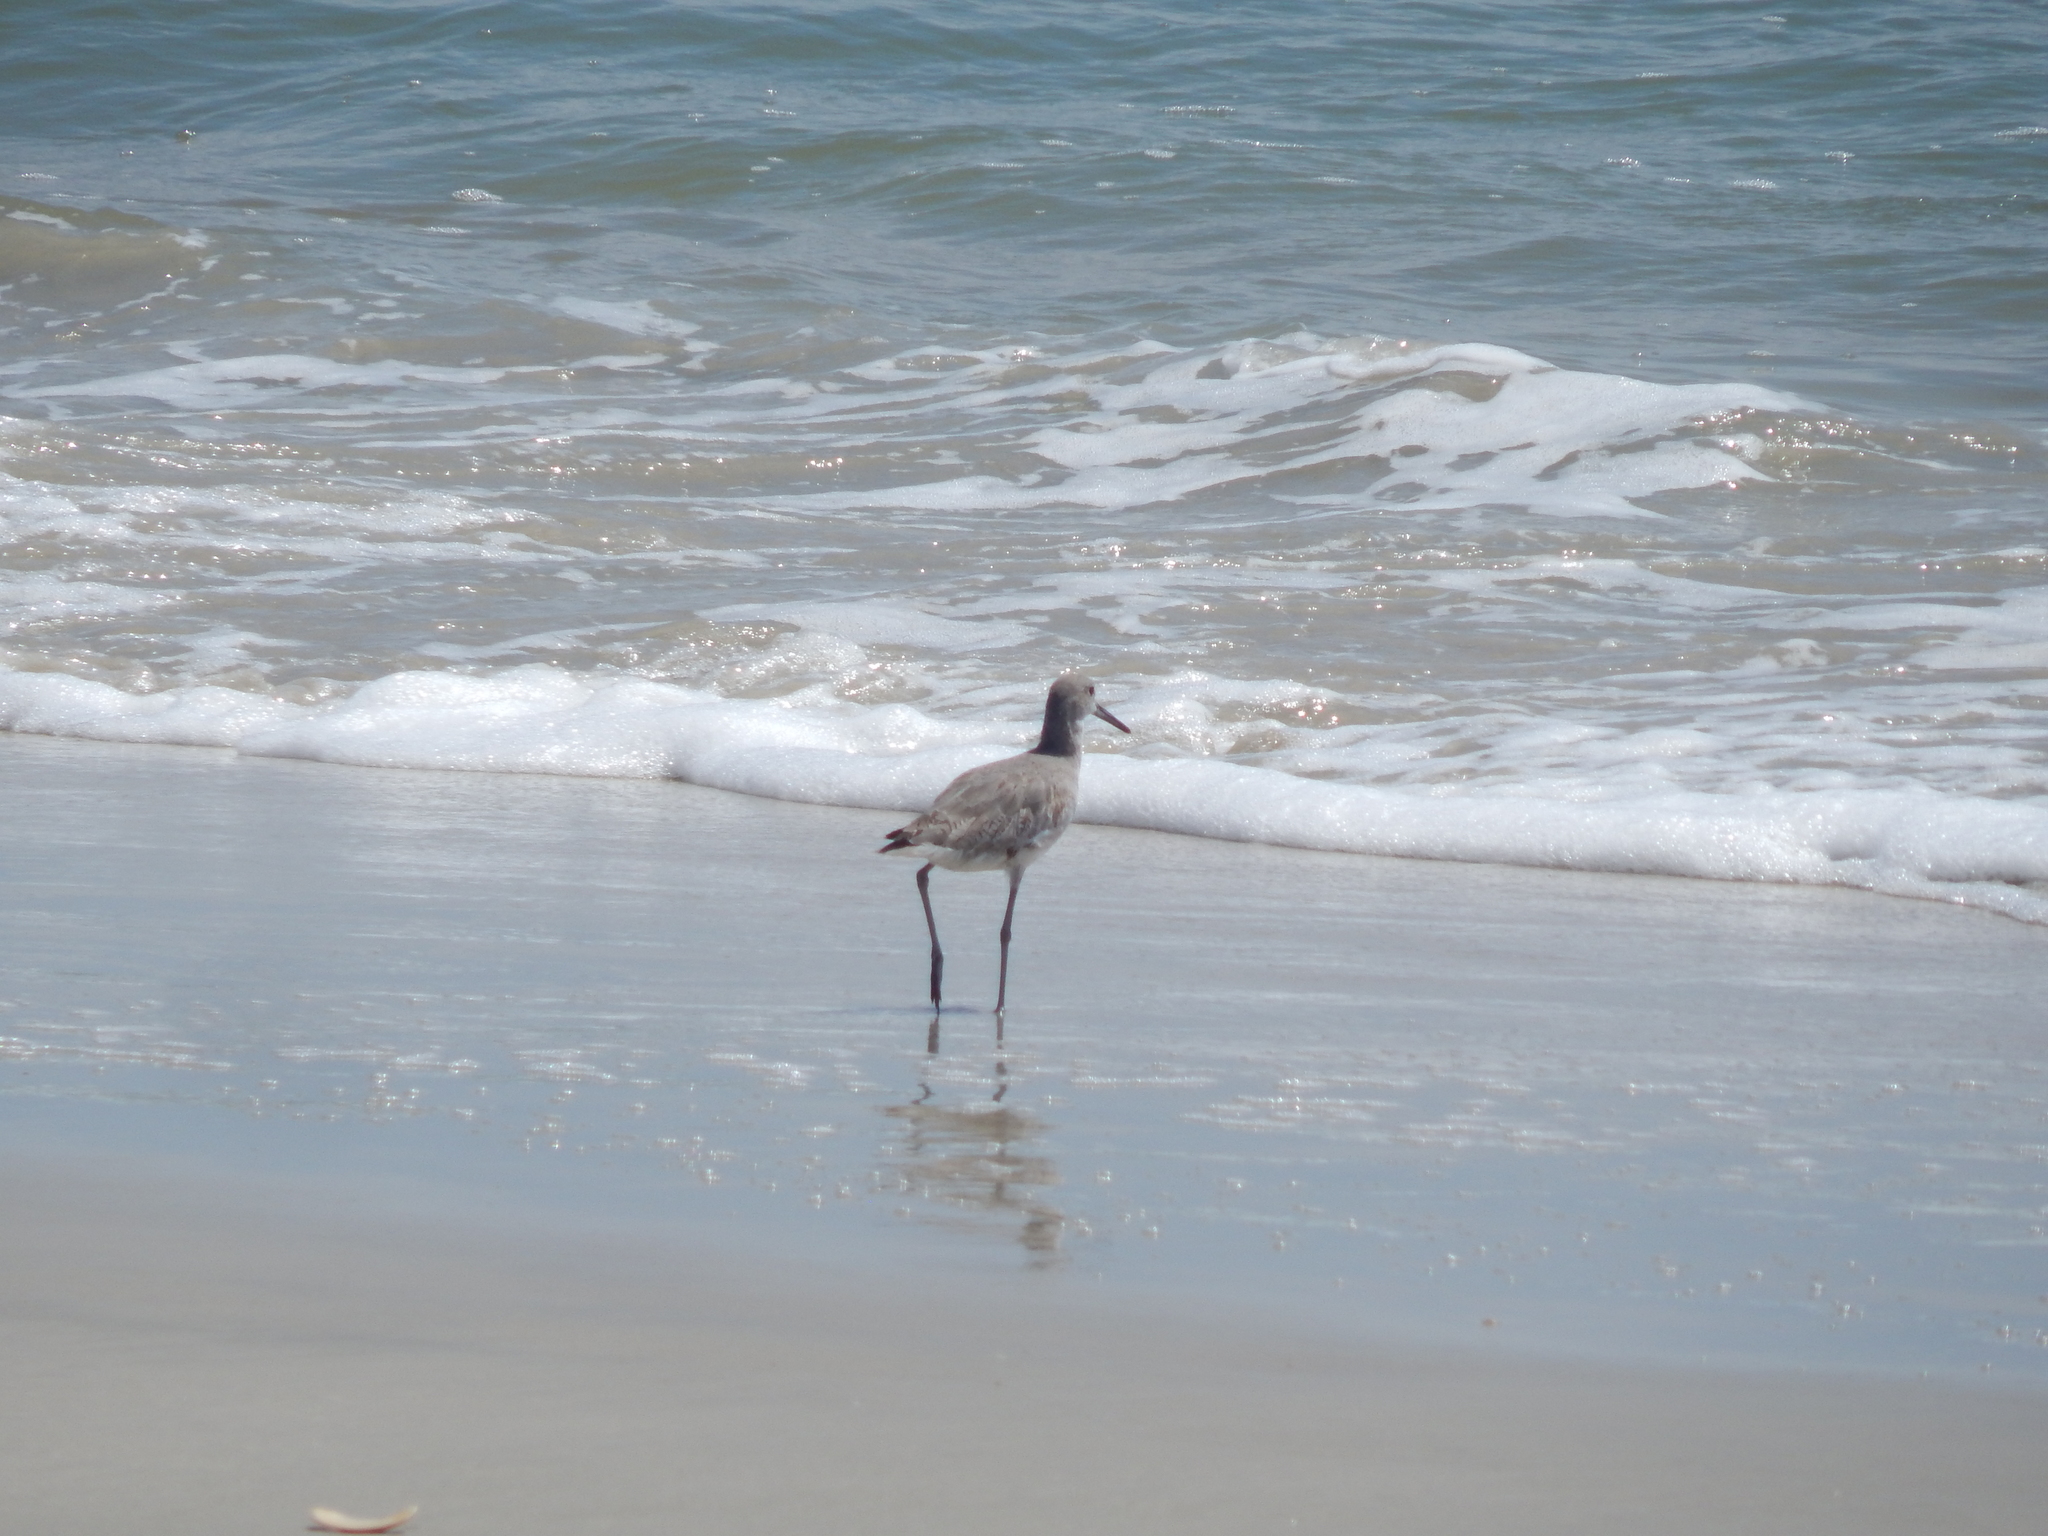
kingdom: Animalia
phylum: Chordata
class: Aves
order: Charadriiformes
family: Scolopacidae
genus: Tringa
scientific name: Tringa semipalmata
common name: Willet
